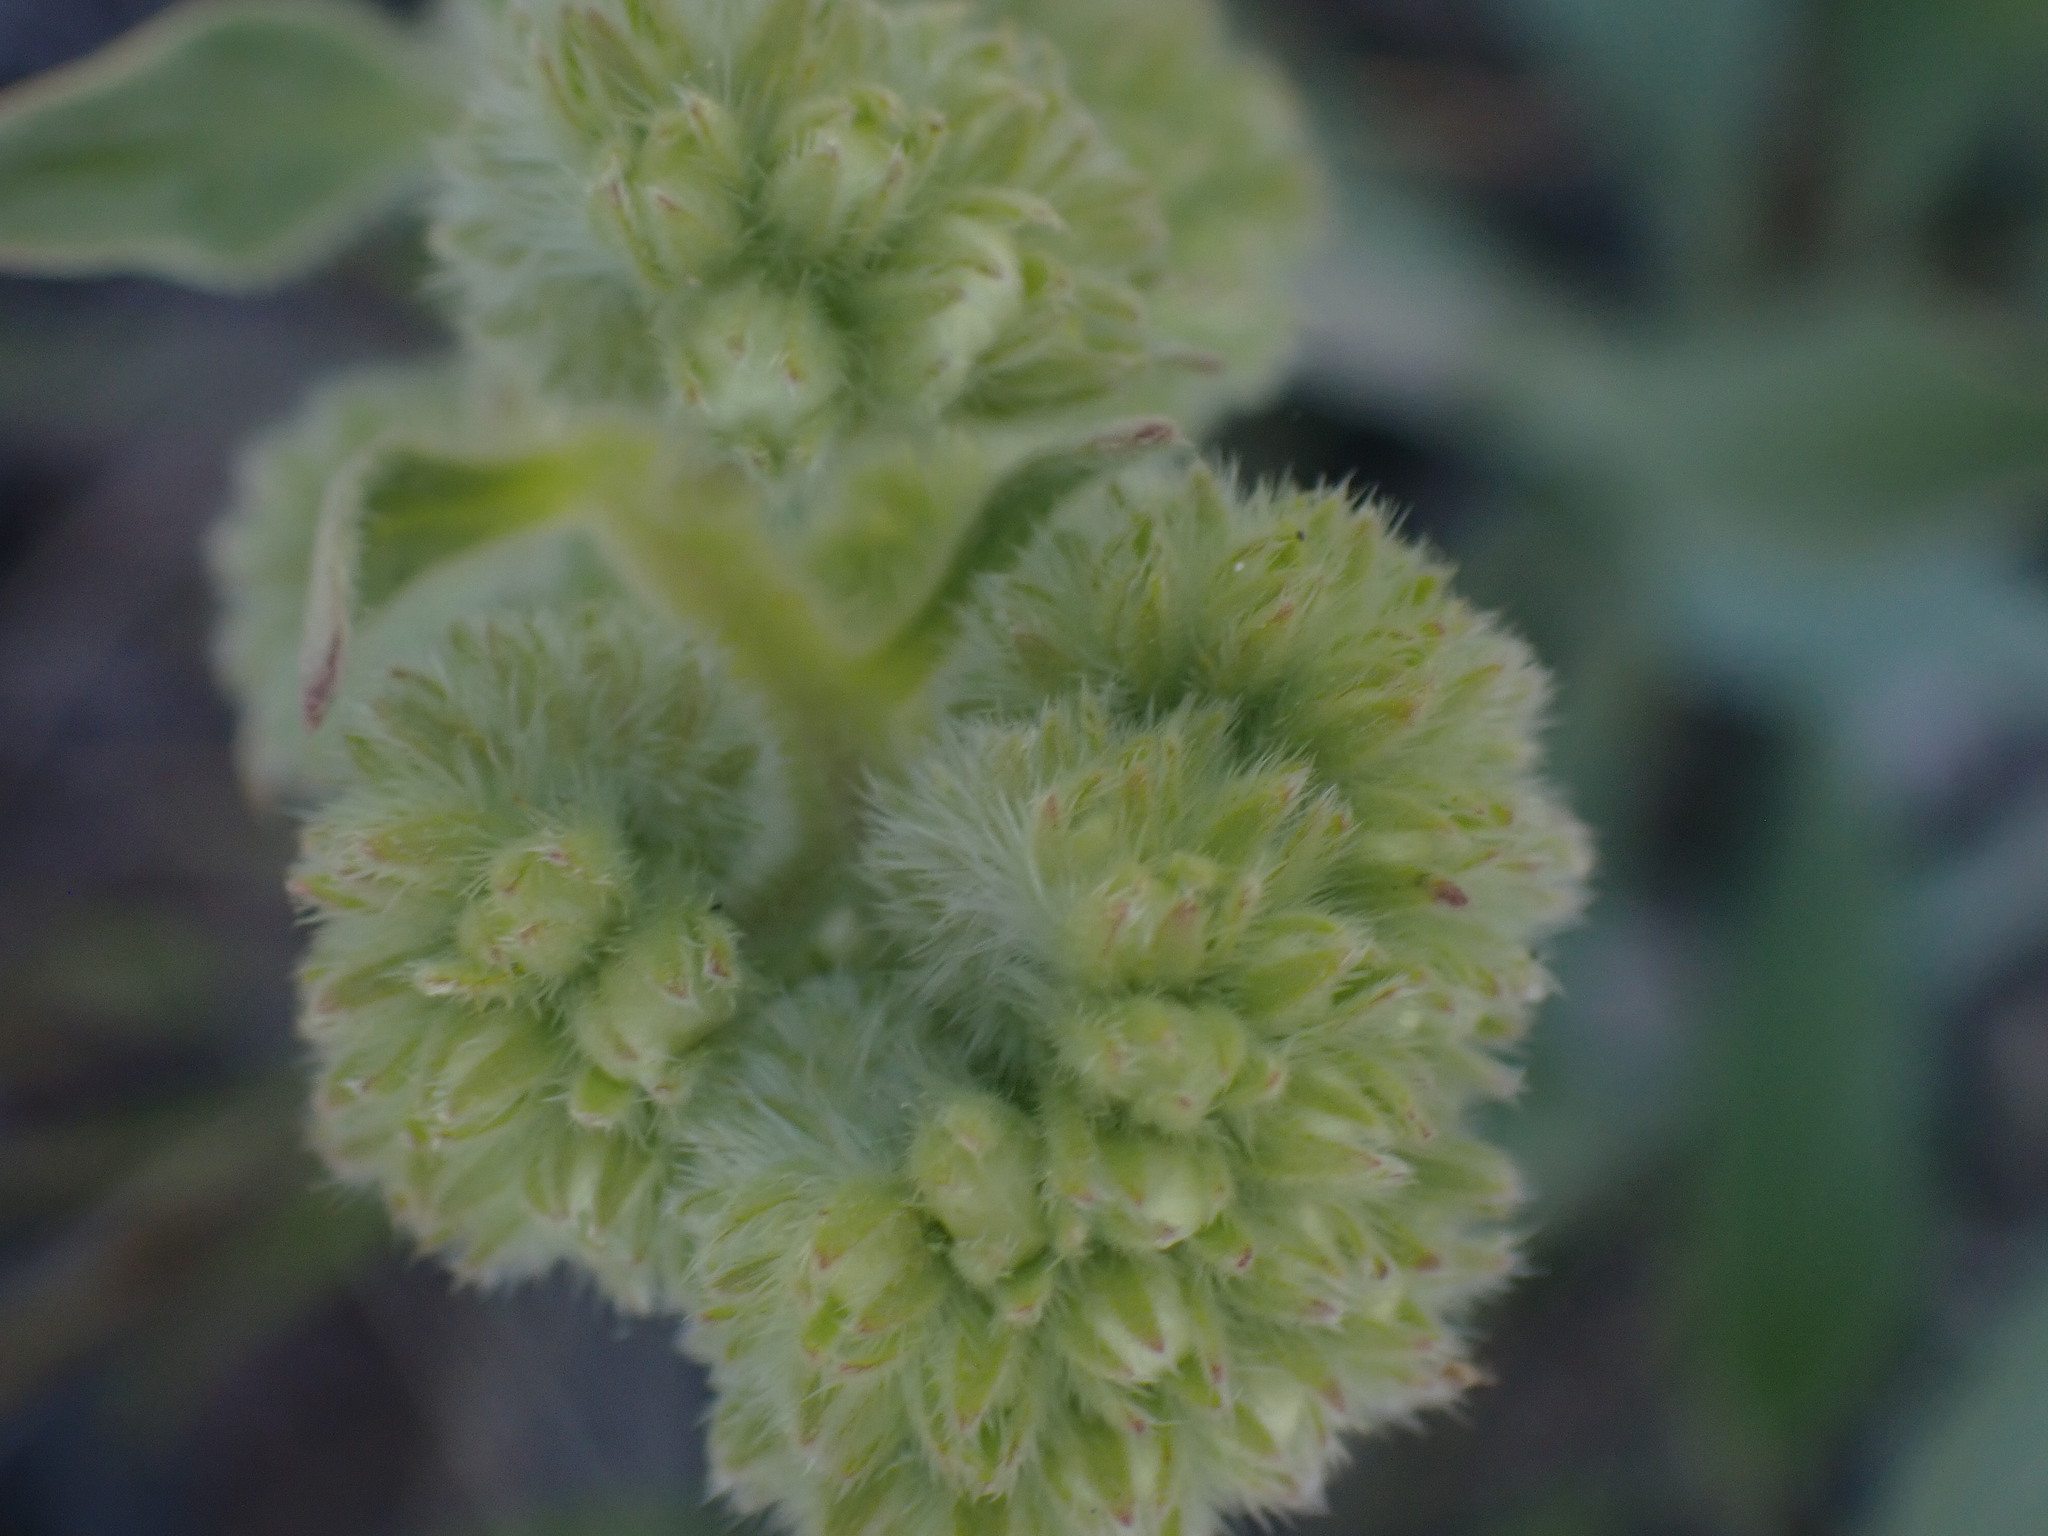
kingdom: Plantae
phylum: Tracheophyta
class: Magnoliopsida
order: Boraginales
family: Hydrophyllaceae
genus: Phacelia
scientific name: Phacelia hastata
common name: Silver-leaved phacelia
